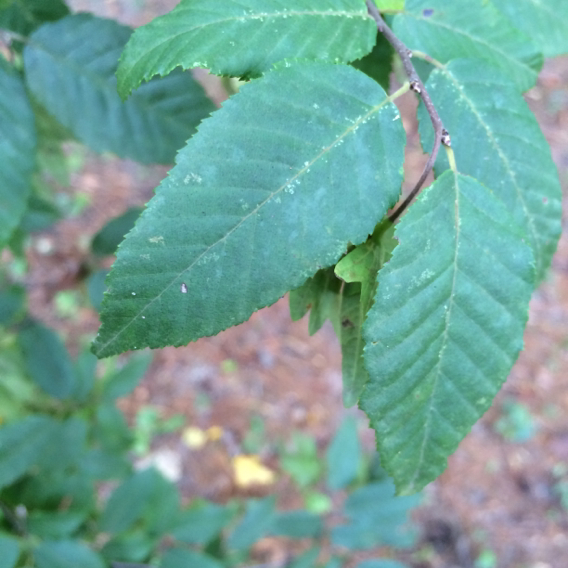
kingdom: Plantae
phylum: Tracheophyta
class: Magnoliopsida
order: Fagales
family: Betulaceae
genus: Carpinus
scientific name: Carpinus caroliniana
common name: American hornbeam
